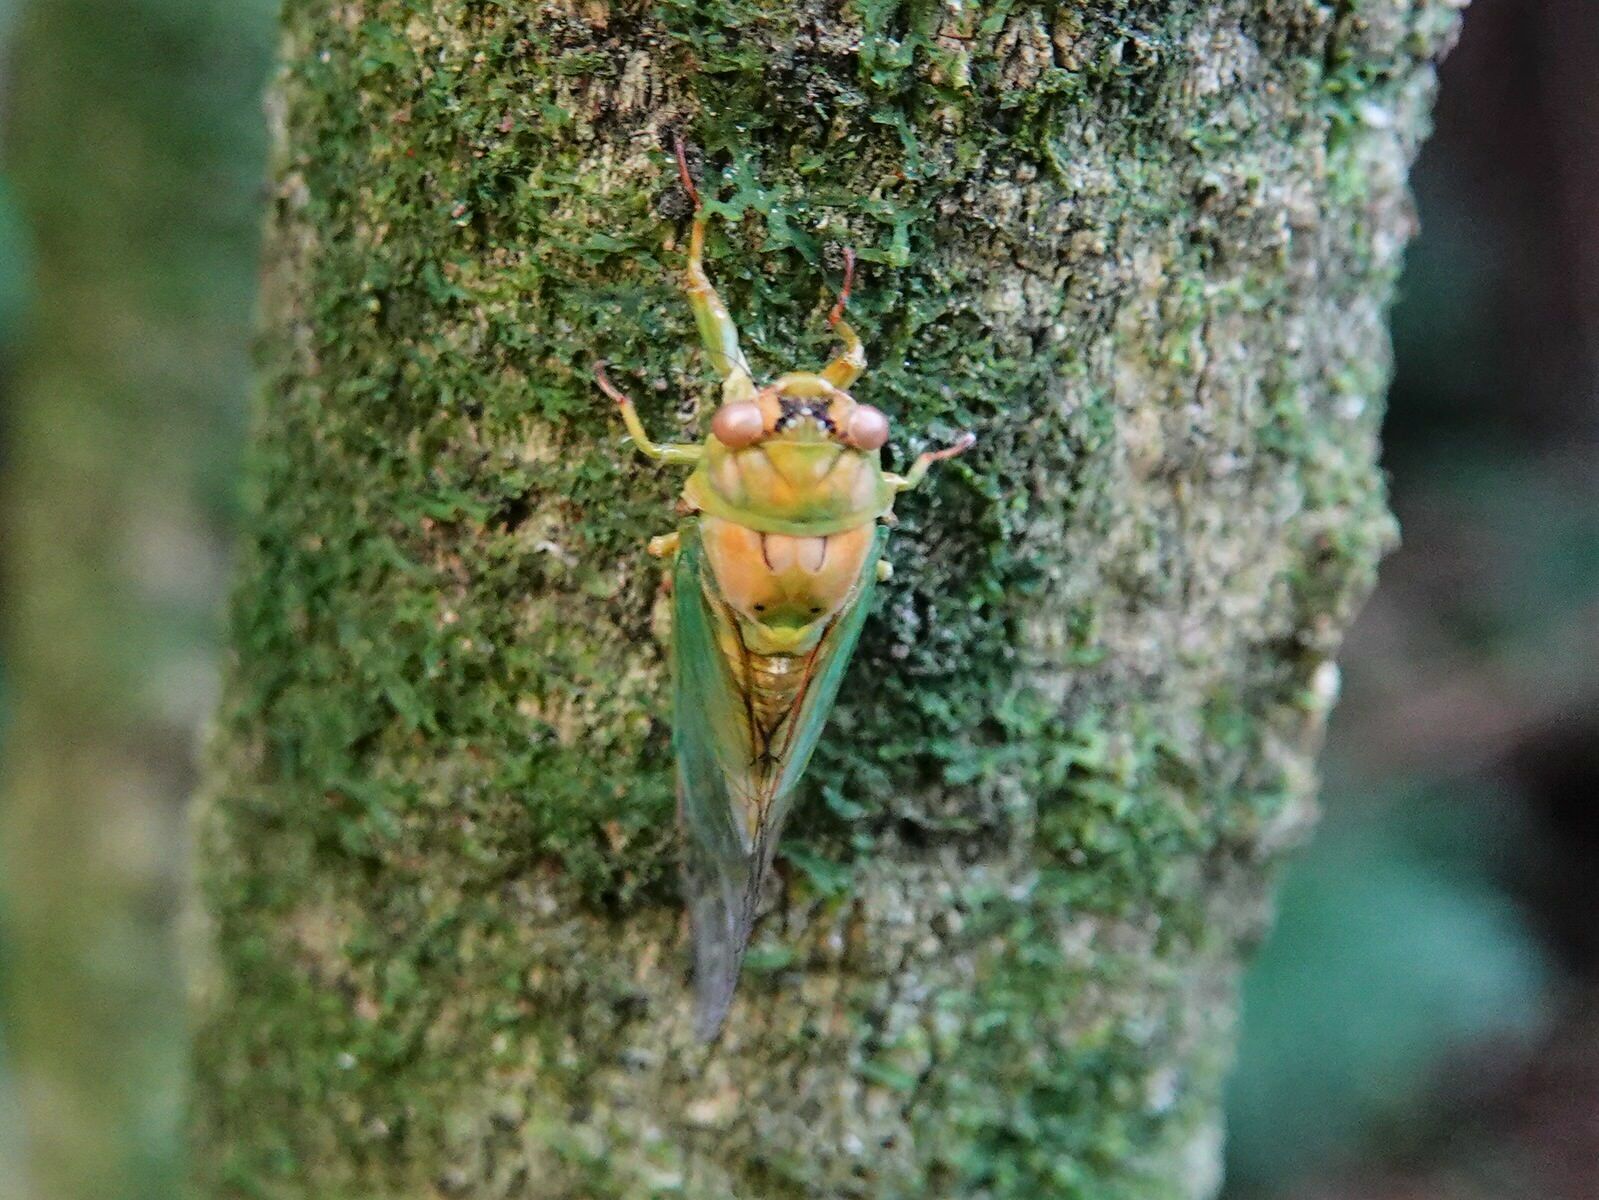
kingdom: Animalia
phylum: Arthropoda
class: Insecta
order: Hemiptera
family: Cicadidae
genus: Kikihia
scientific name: Kikihia ochrina
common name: April green cicada
